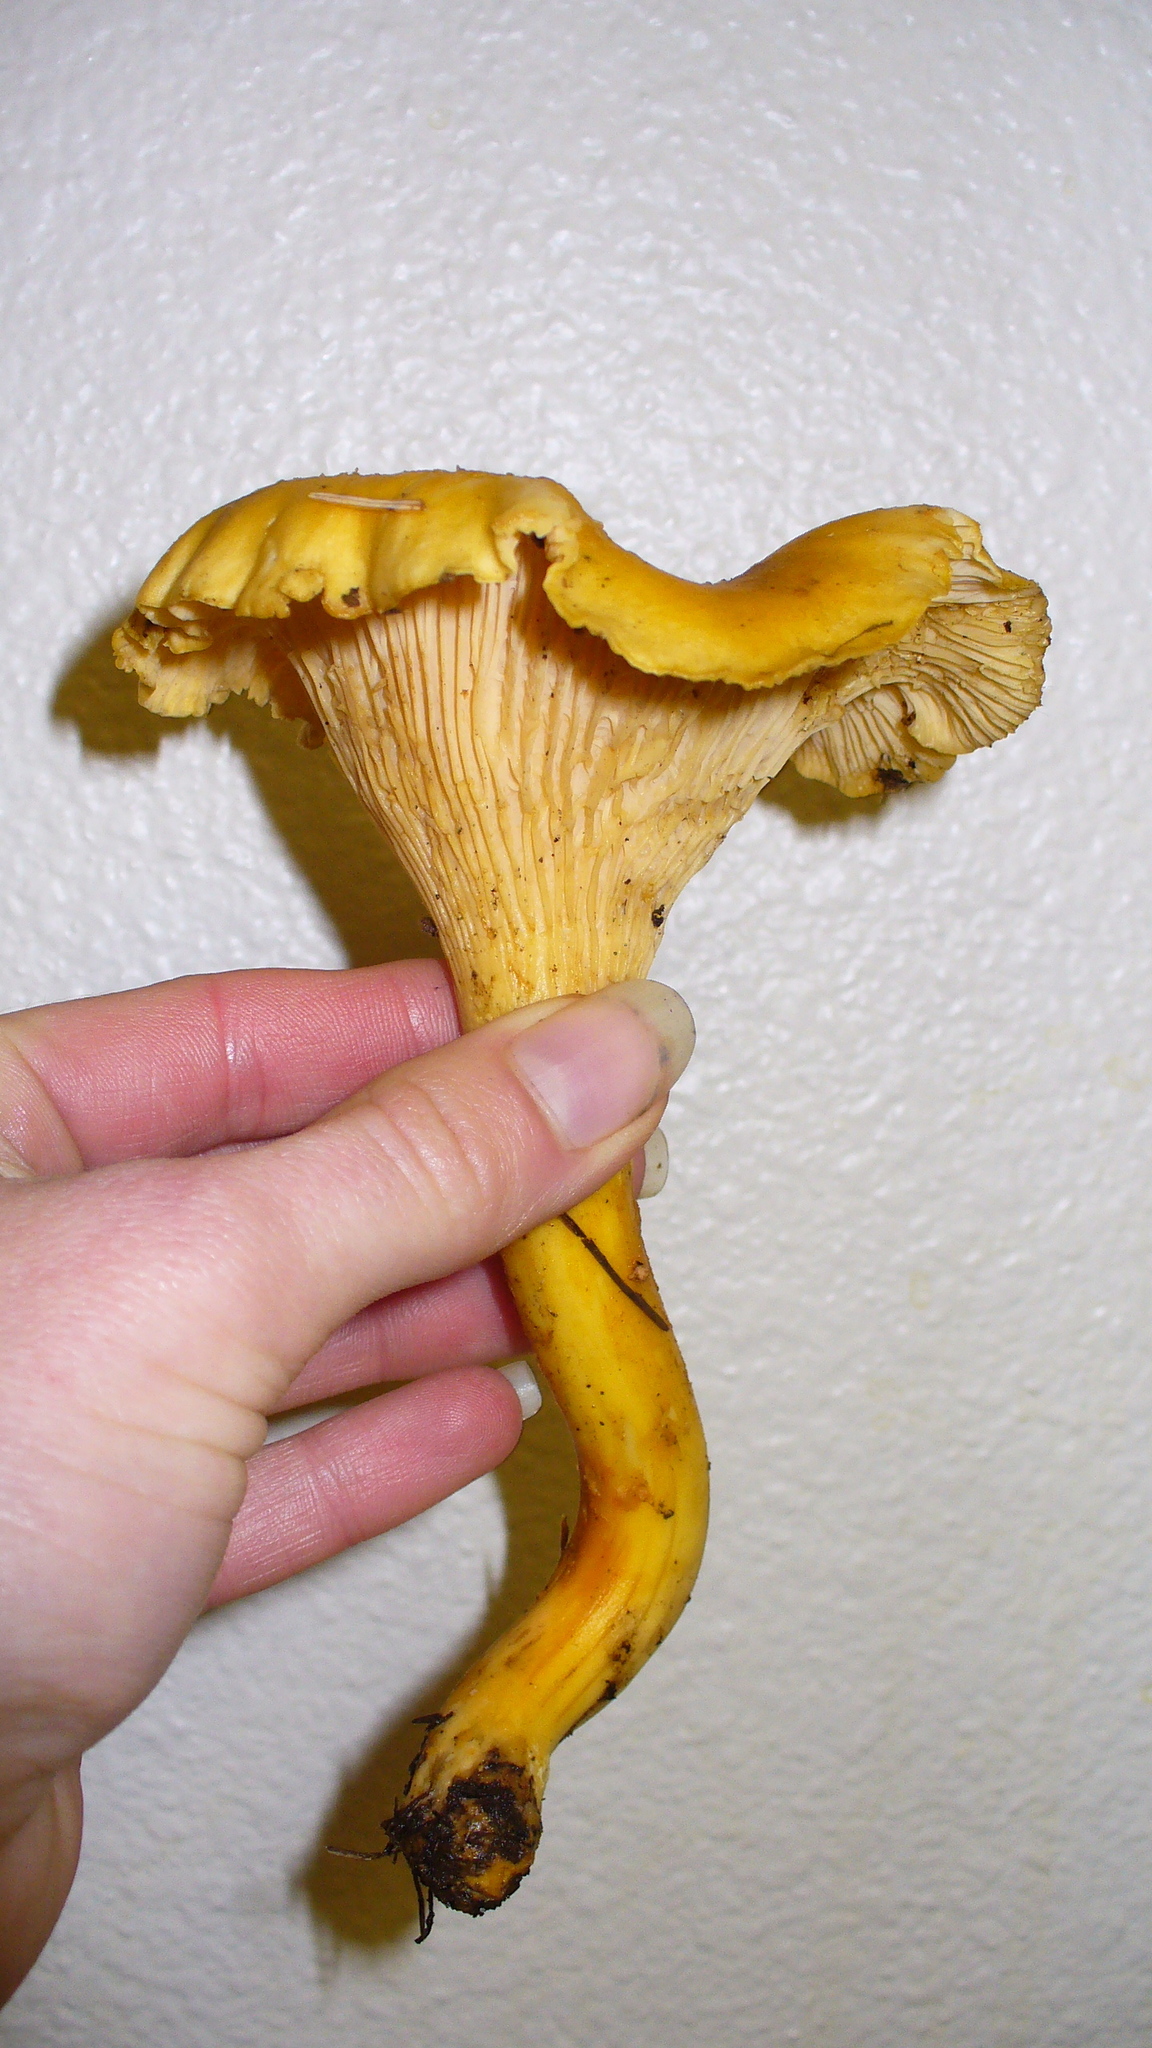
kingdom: Fungi
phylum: Basidiomycota
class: Agaricomycetes
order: Cantharellales
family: Hydnaceae
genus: Cantharellus
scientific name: Cantharellus formosus
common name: Pacific golden chanterelle
